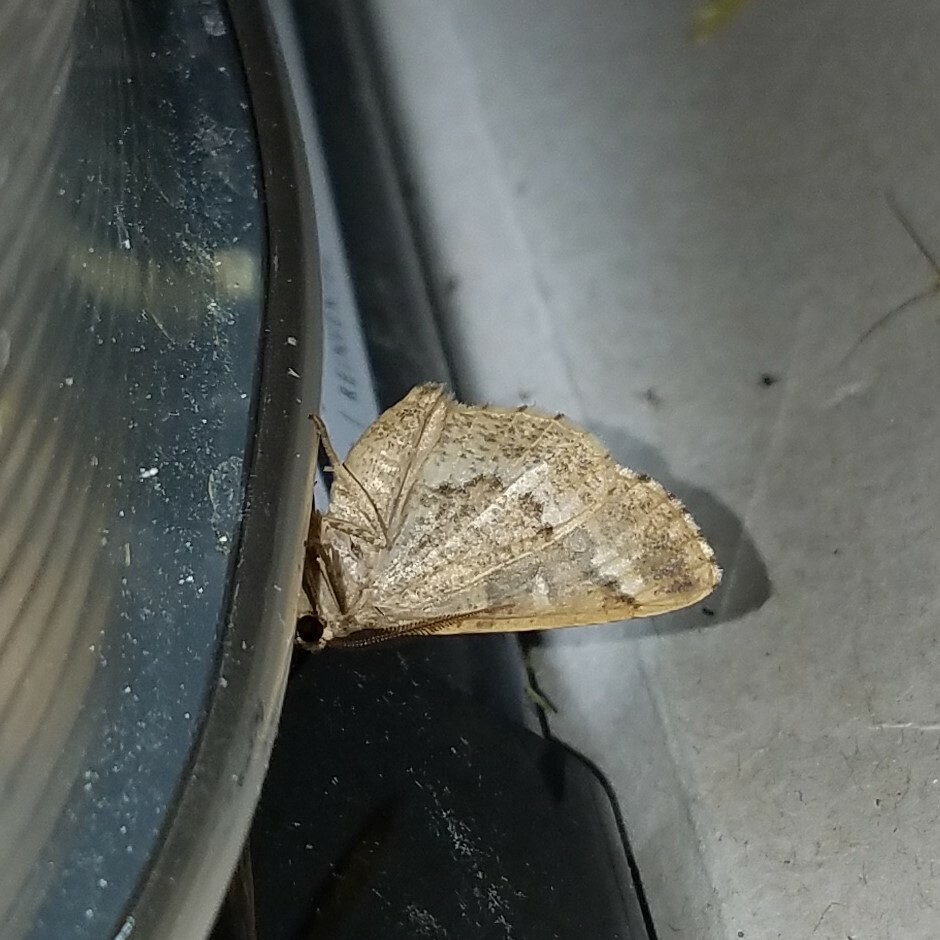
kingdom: Animalia
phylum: Arthropoda
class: Insecta
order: Lepidoptera
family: Geometridae
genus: Caripeta
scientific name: Caripeta divisata
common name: Gray spruce looper
